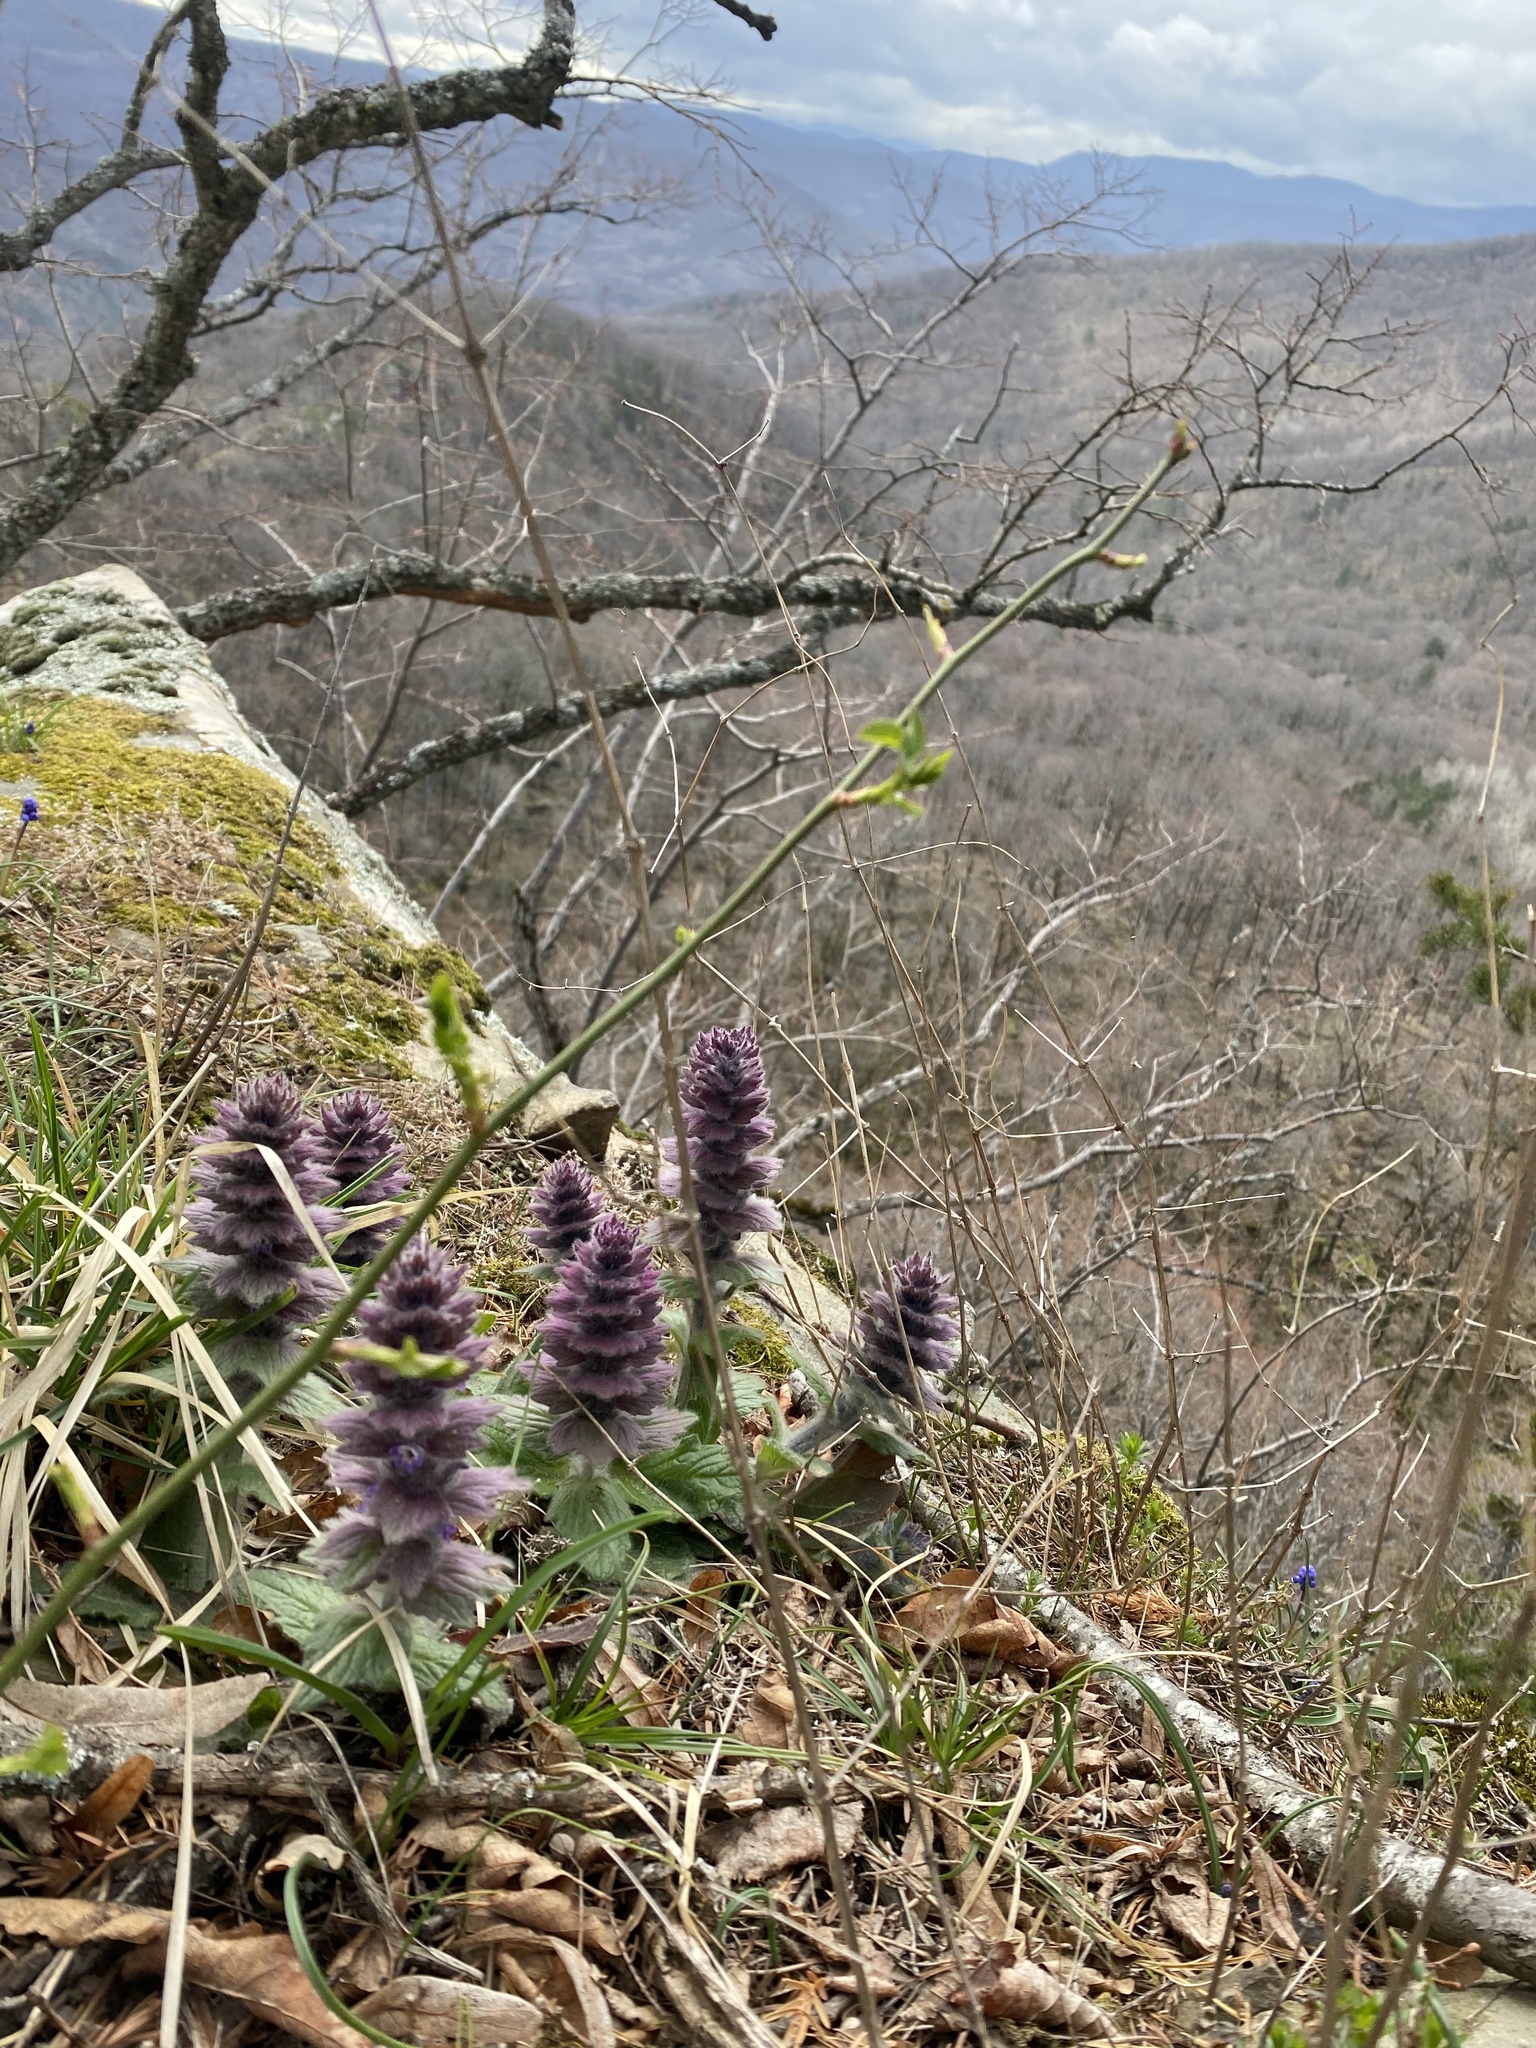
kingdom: Plantae
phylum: Tracheophyta
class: Magnoliopsida
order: Lamiales
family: Lamiaceae
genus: Ajuga
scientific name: Ajuga orientalis
